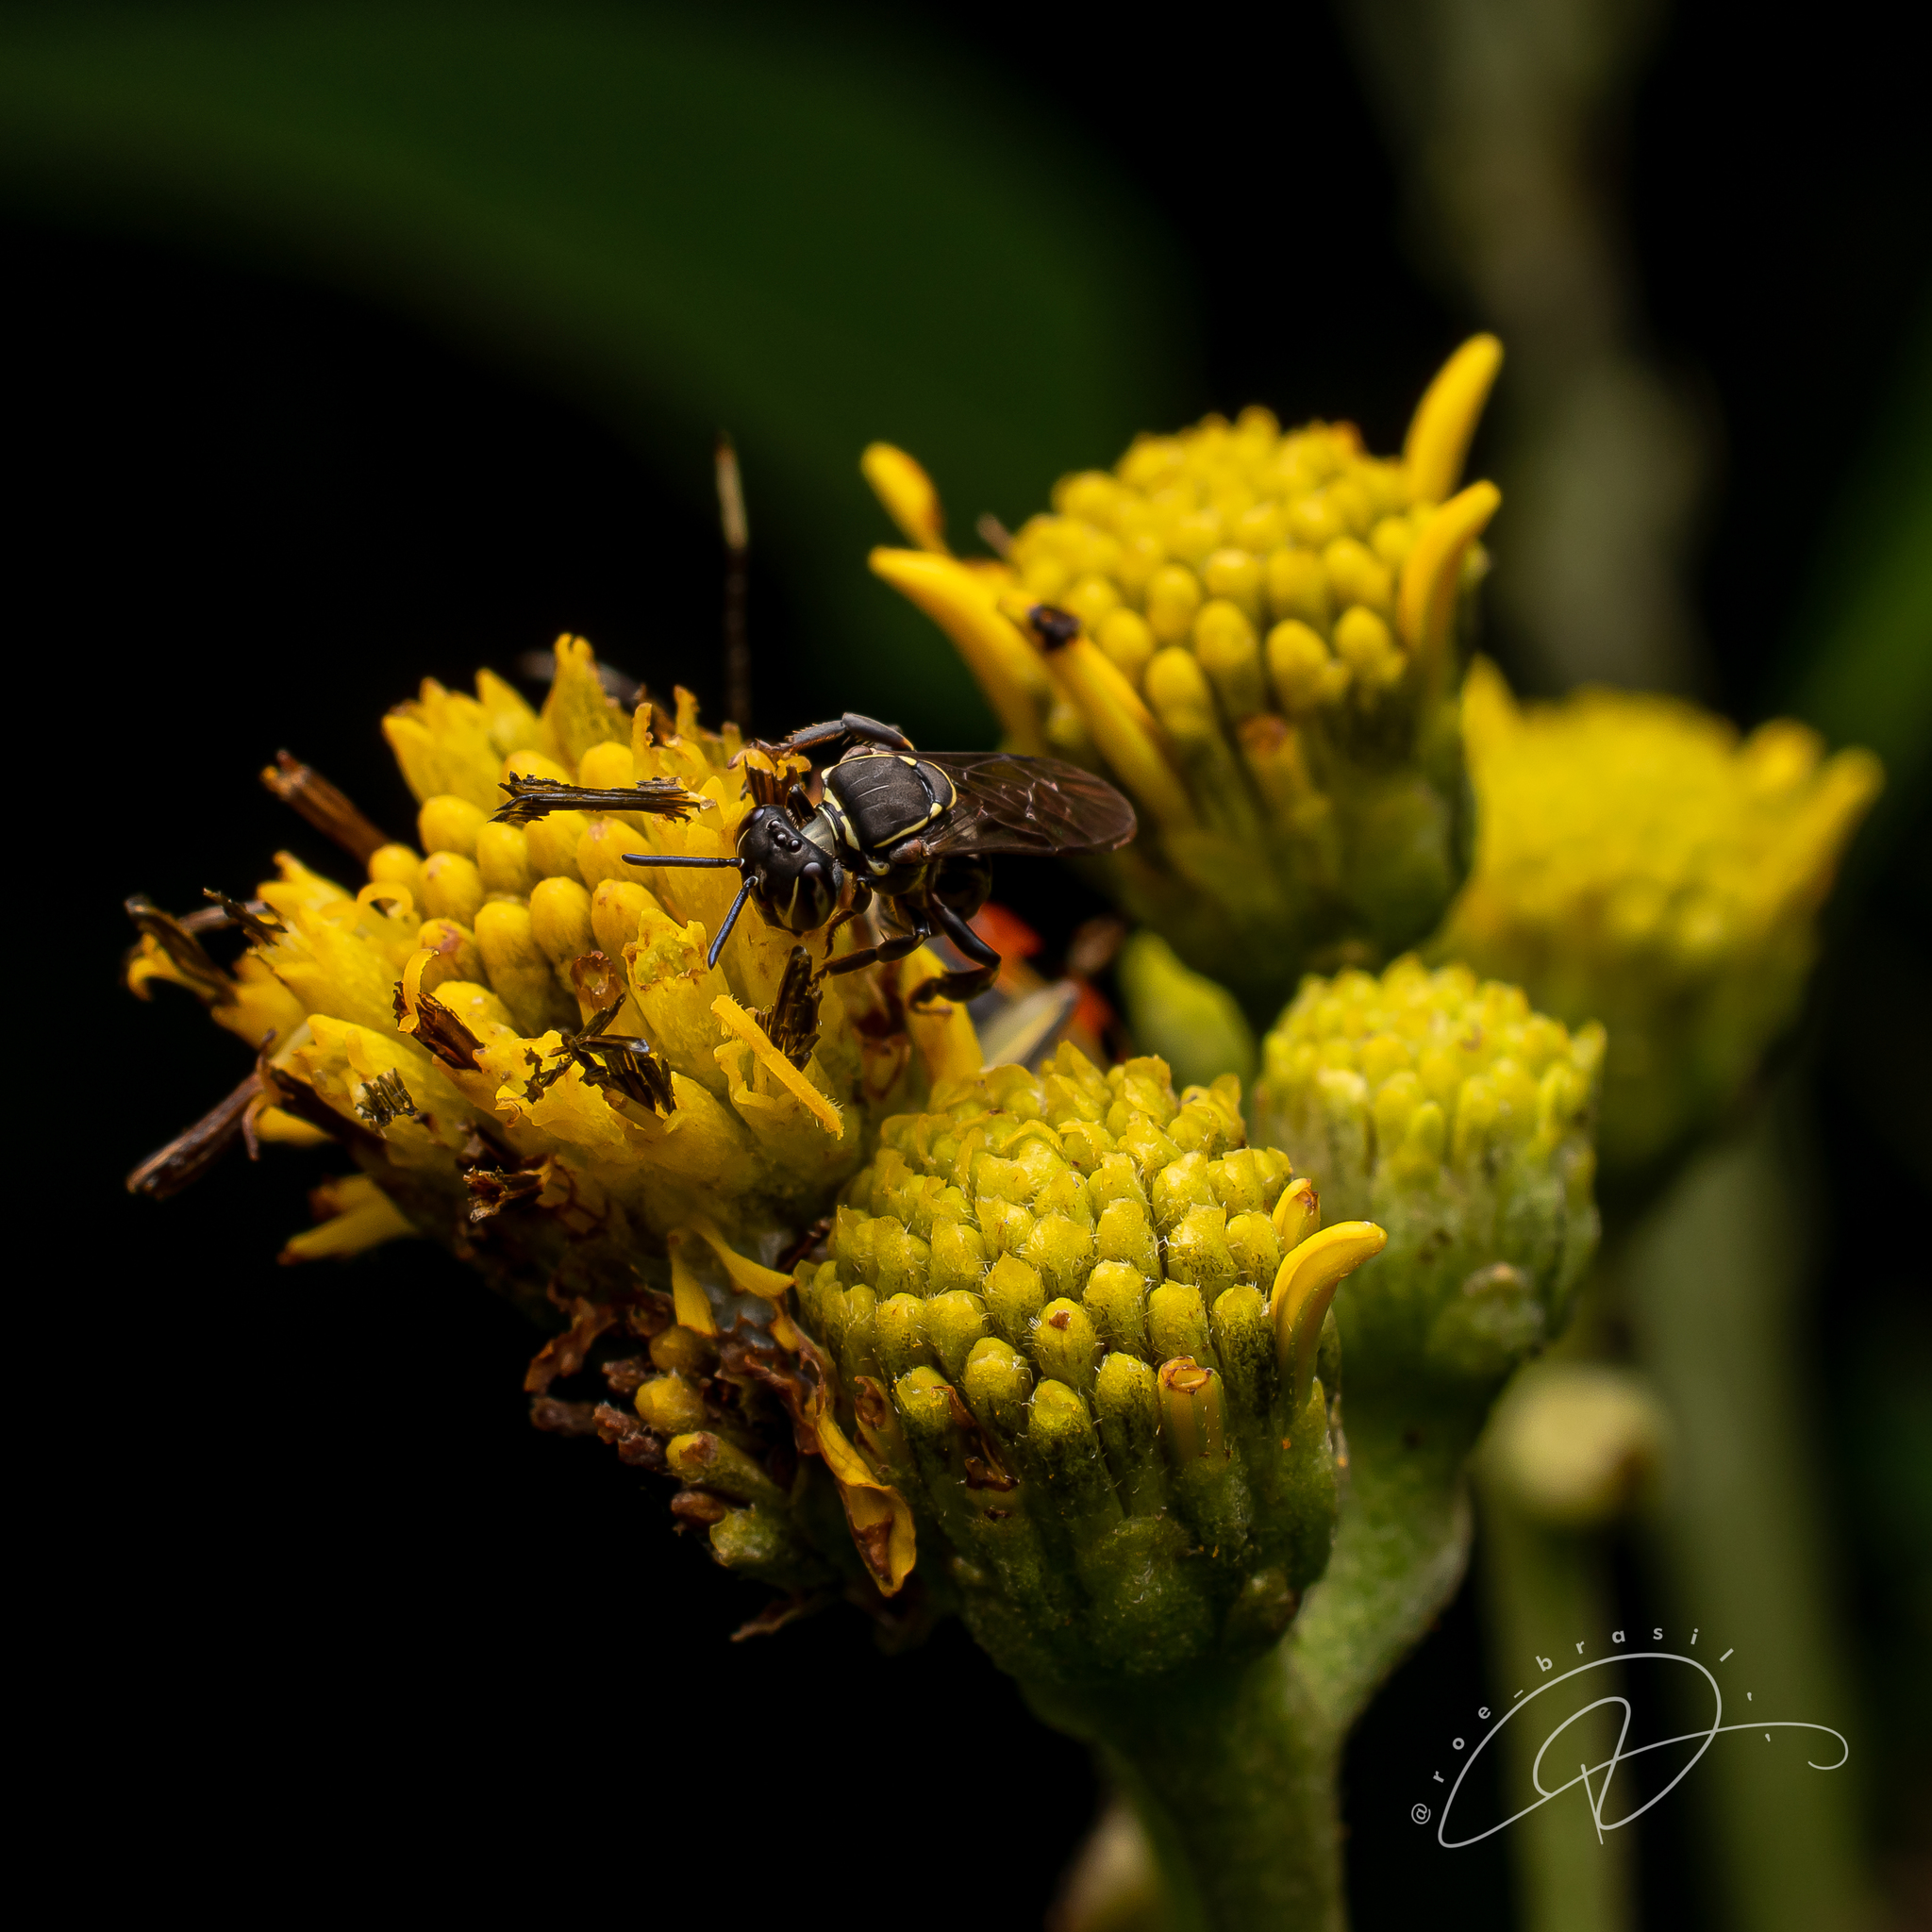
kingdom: Animalia
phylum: Arthropoda
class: Insecta
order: Hymenoptera
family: Apidae
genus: Paratrigona
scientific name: Paratrigona subnuda
